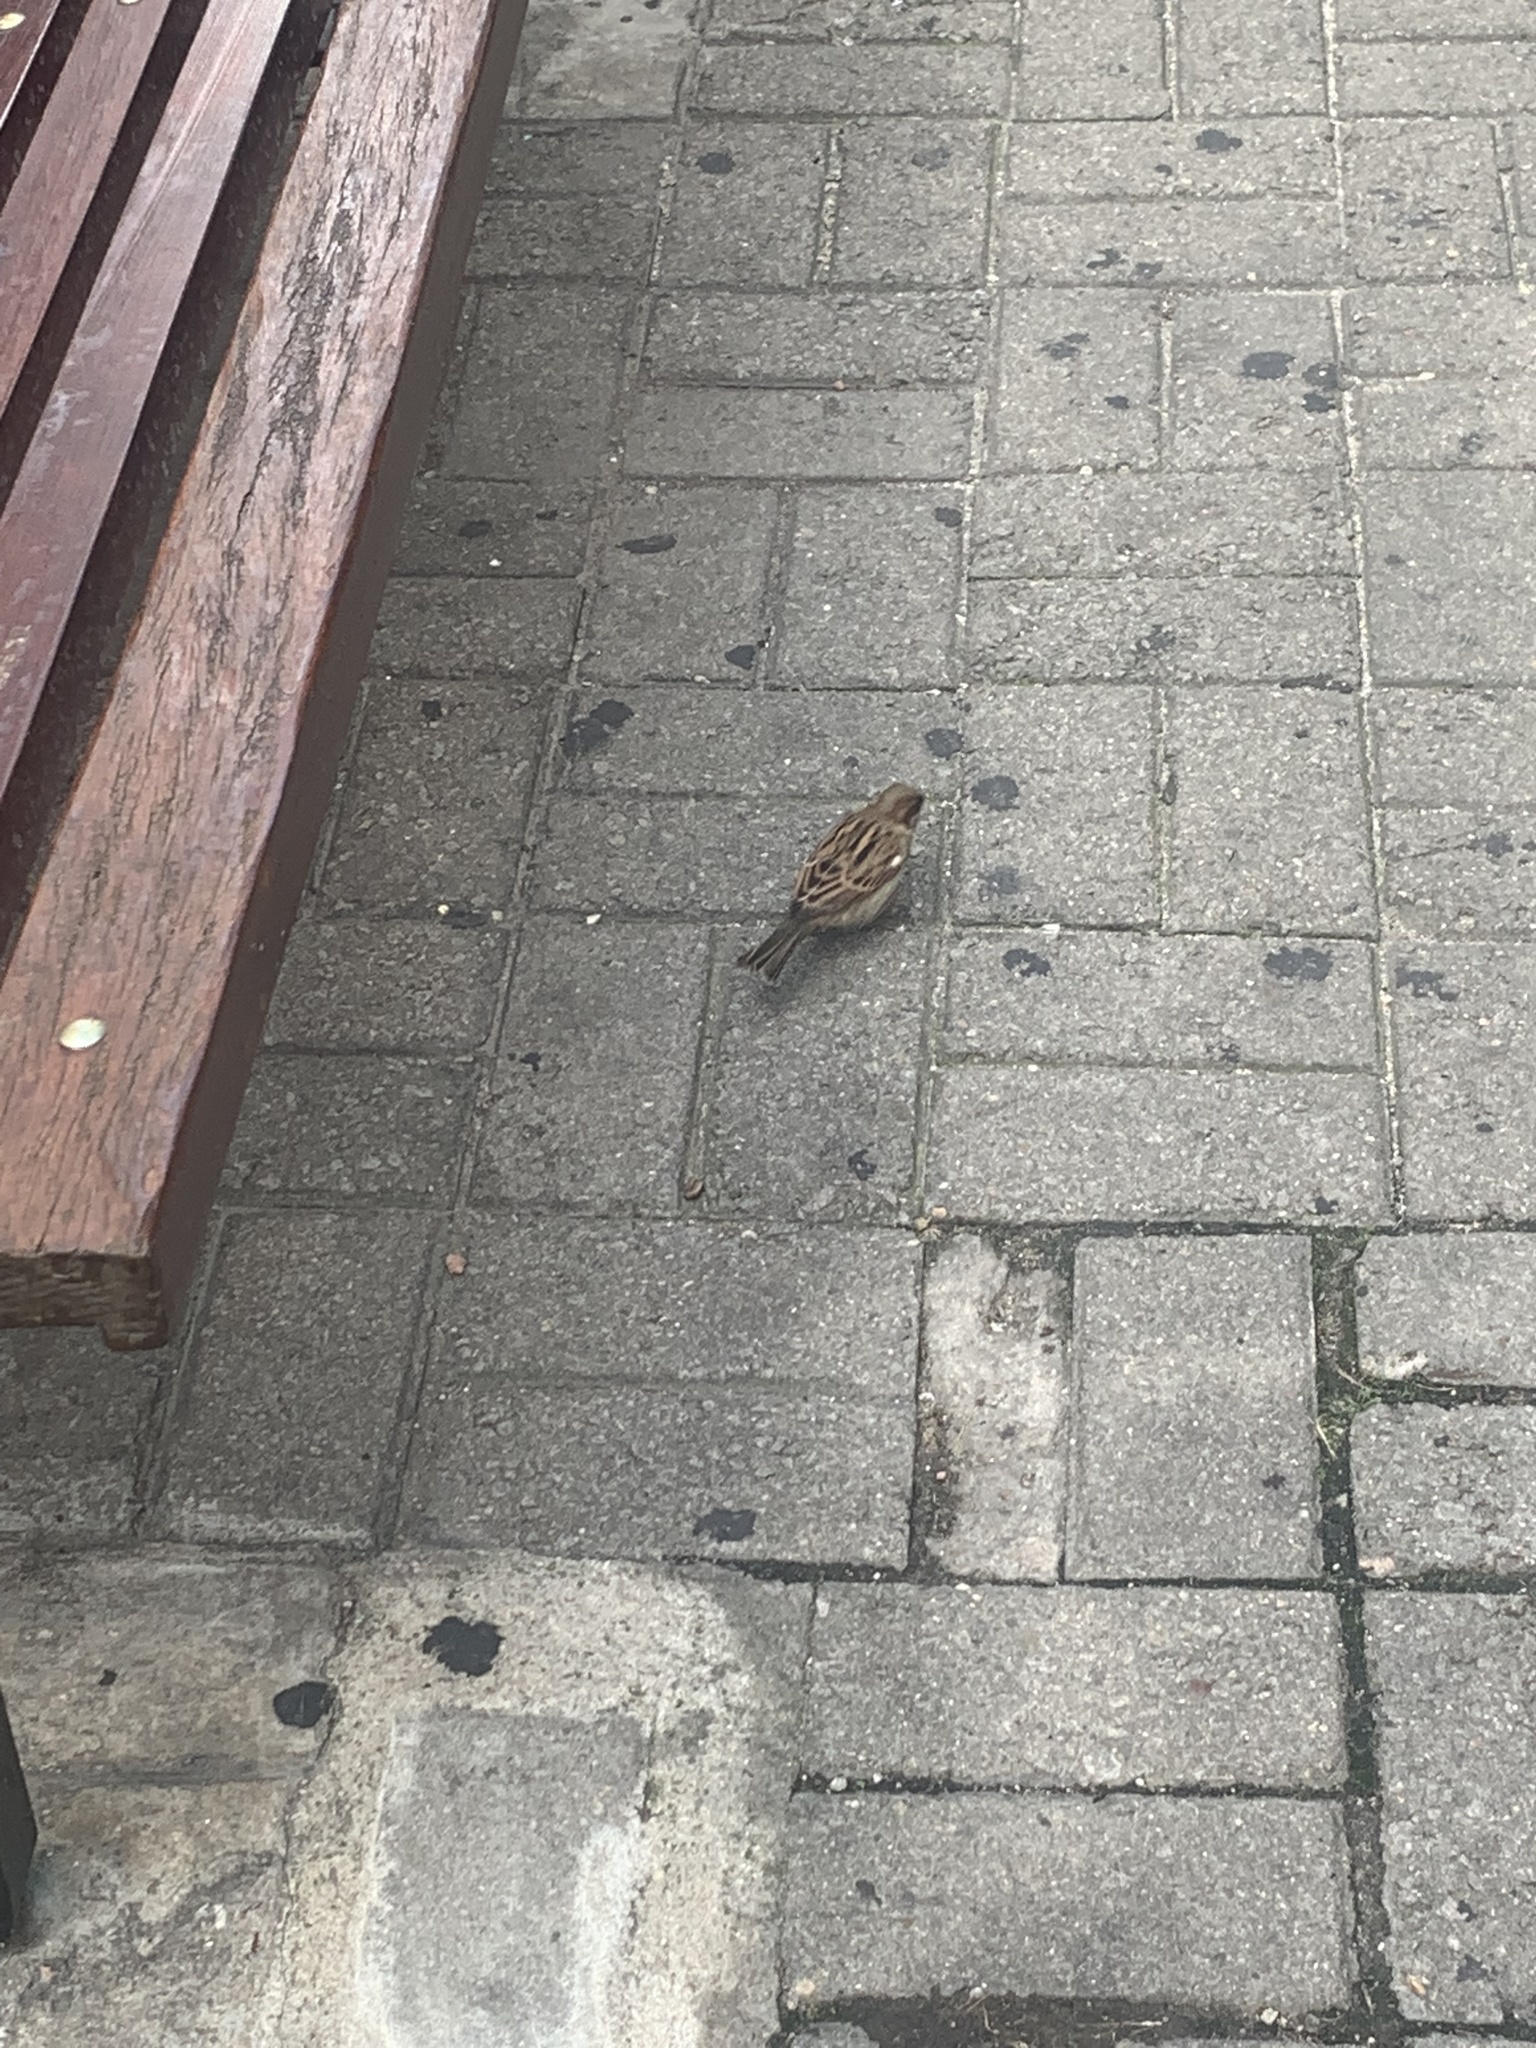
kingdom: Animalia
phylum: Chordata
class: Aves
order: Passeriformes
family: Passeridae
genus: Passer
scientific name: Passer domesticus
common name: House sparrow
